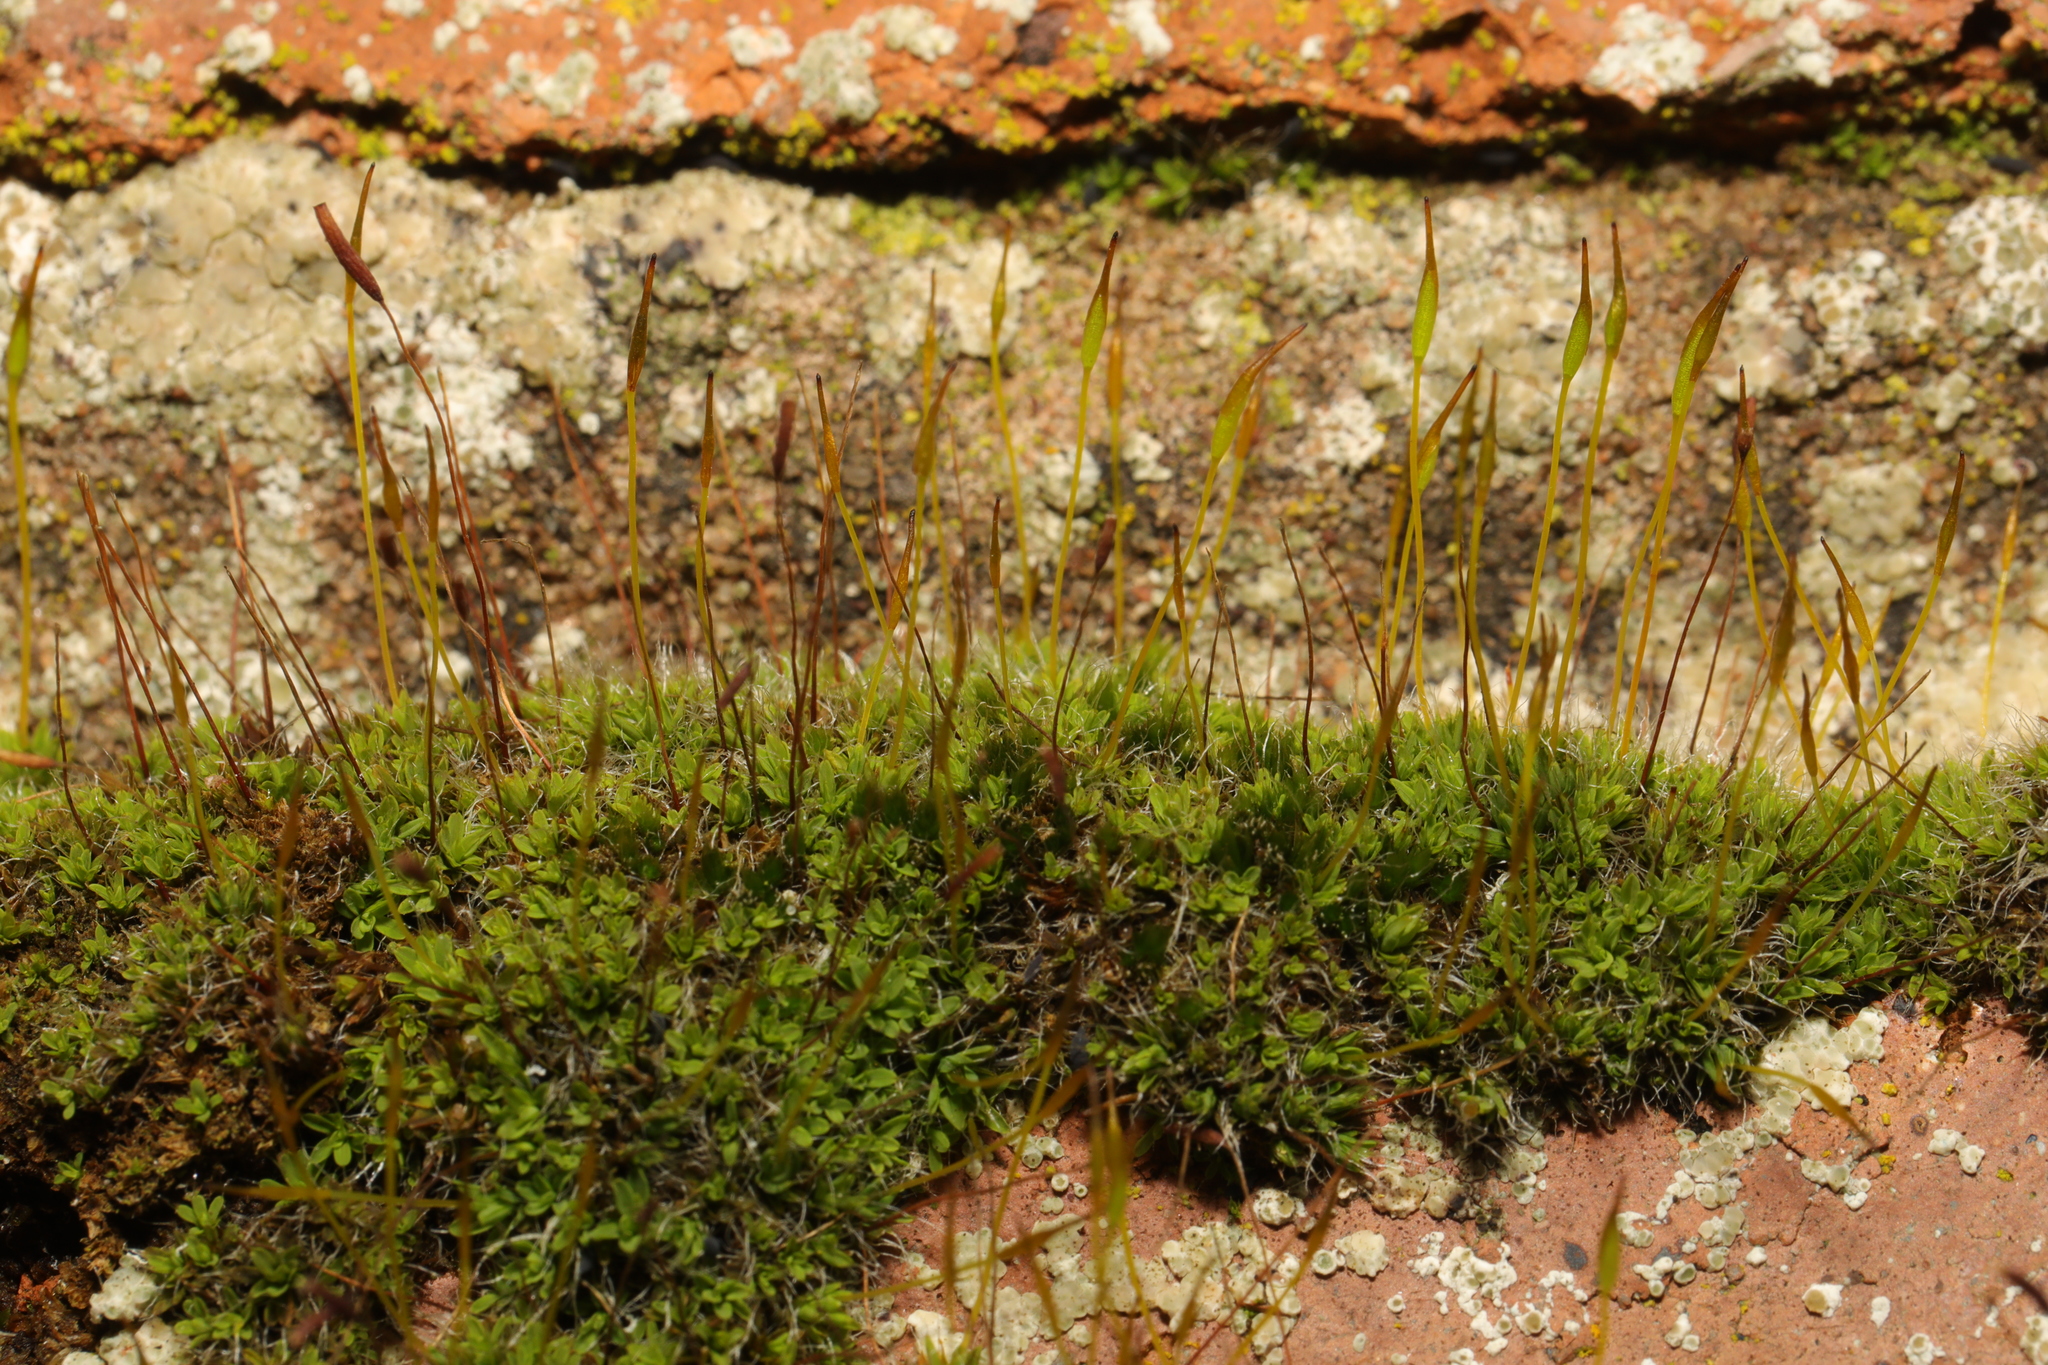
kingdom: Plantae
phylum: Bryophyta
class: Bryopsida
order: Pottiales
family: Pottiaceae
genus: Tortula
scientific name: Tortula muralis
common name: Wall screw-moss
